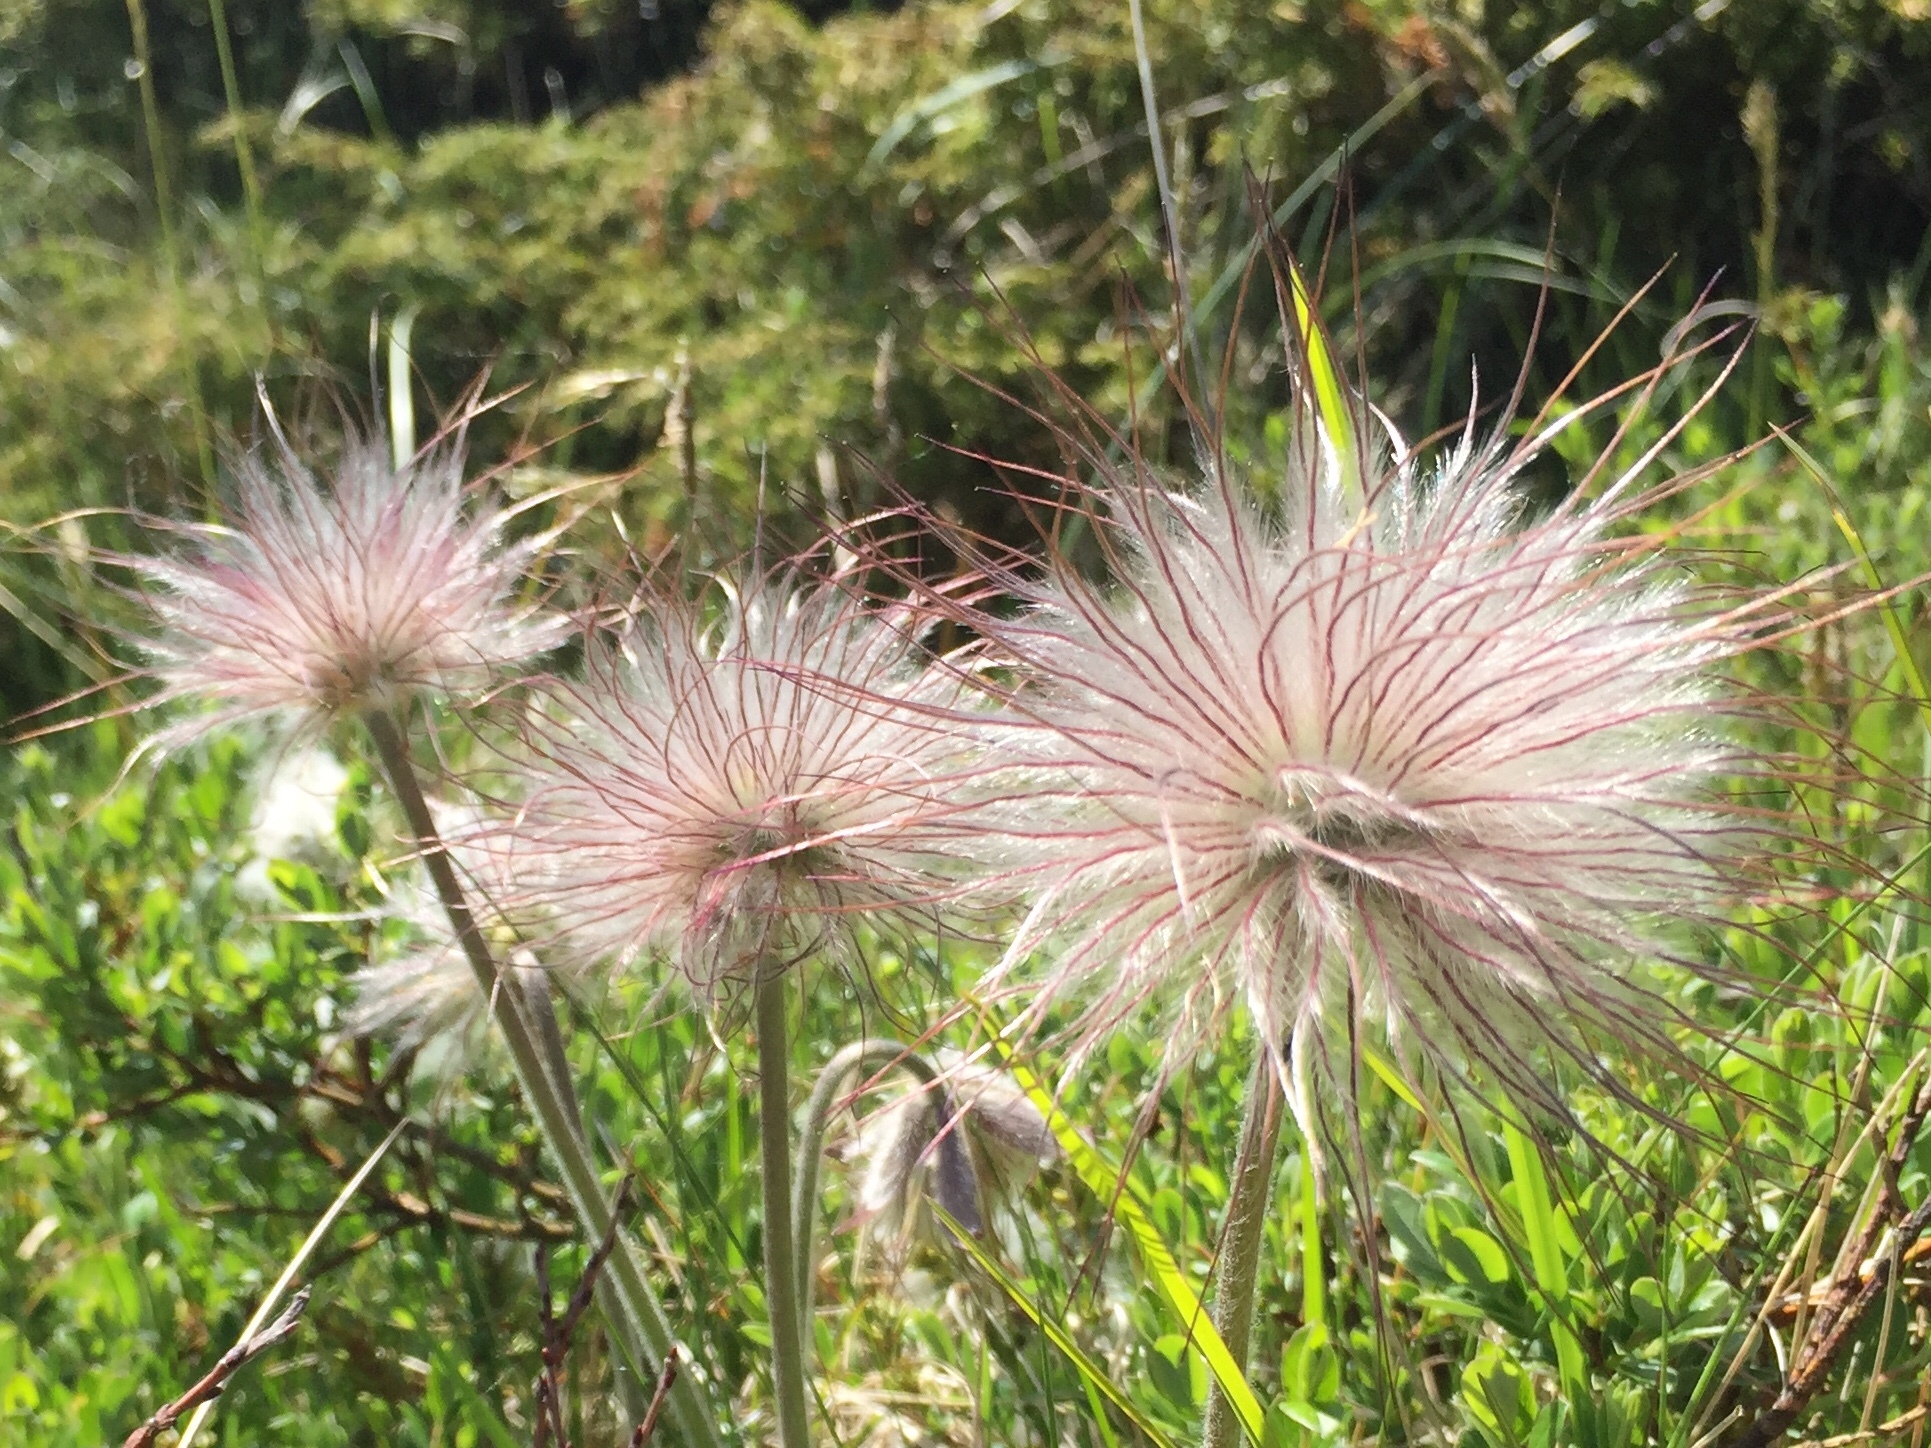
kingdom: Plantae
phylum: Tracheophyta
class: Magnoliopsida
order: Ranunculales
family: Ranunculaceae
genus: Pulsatilla
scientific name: Pulsatilla pratensis
